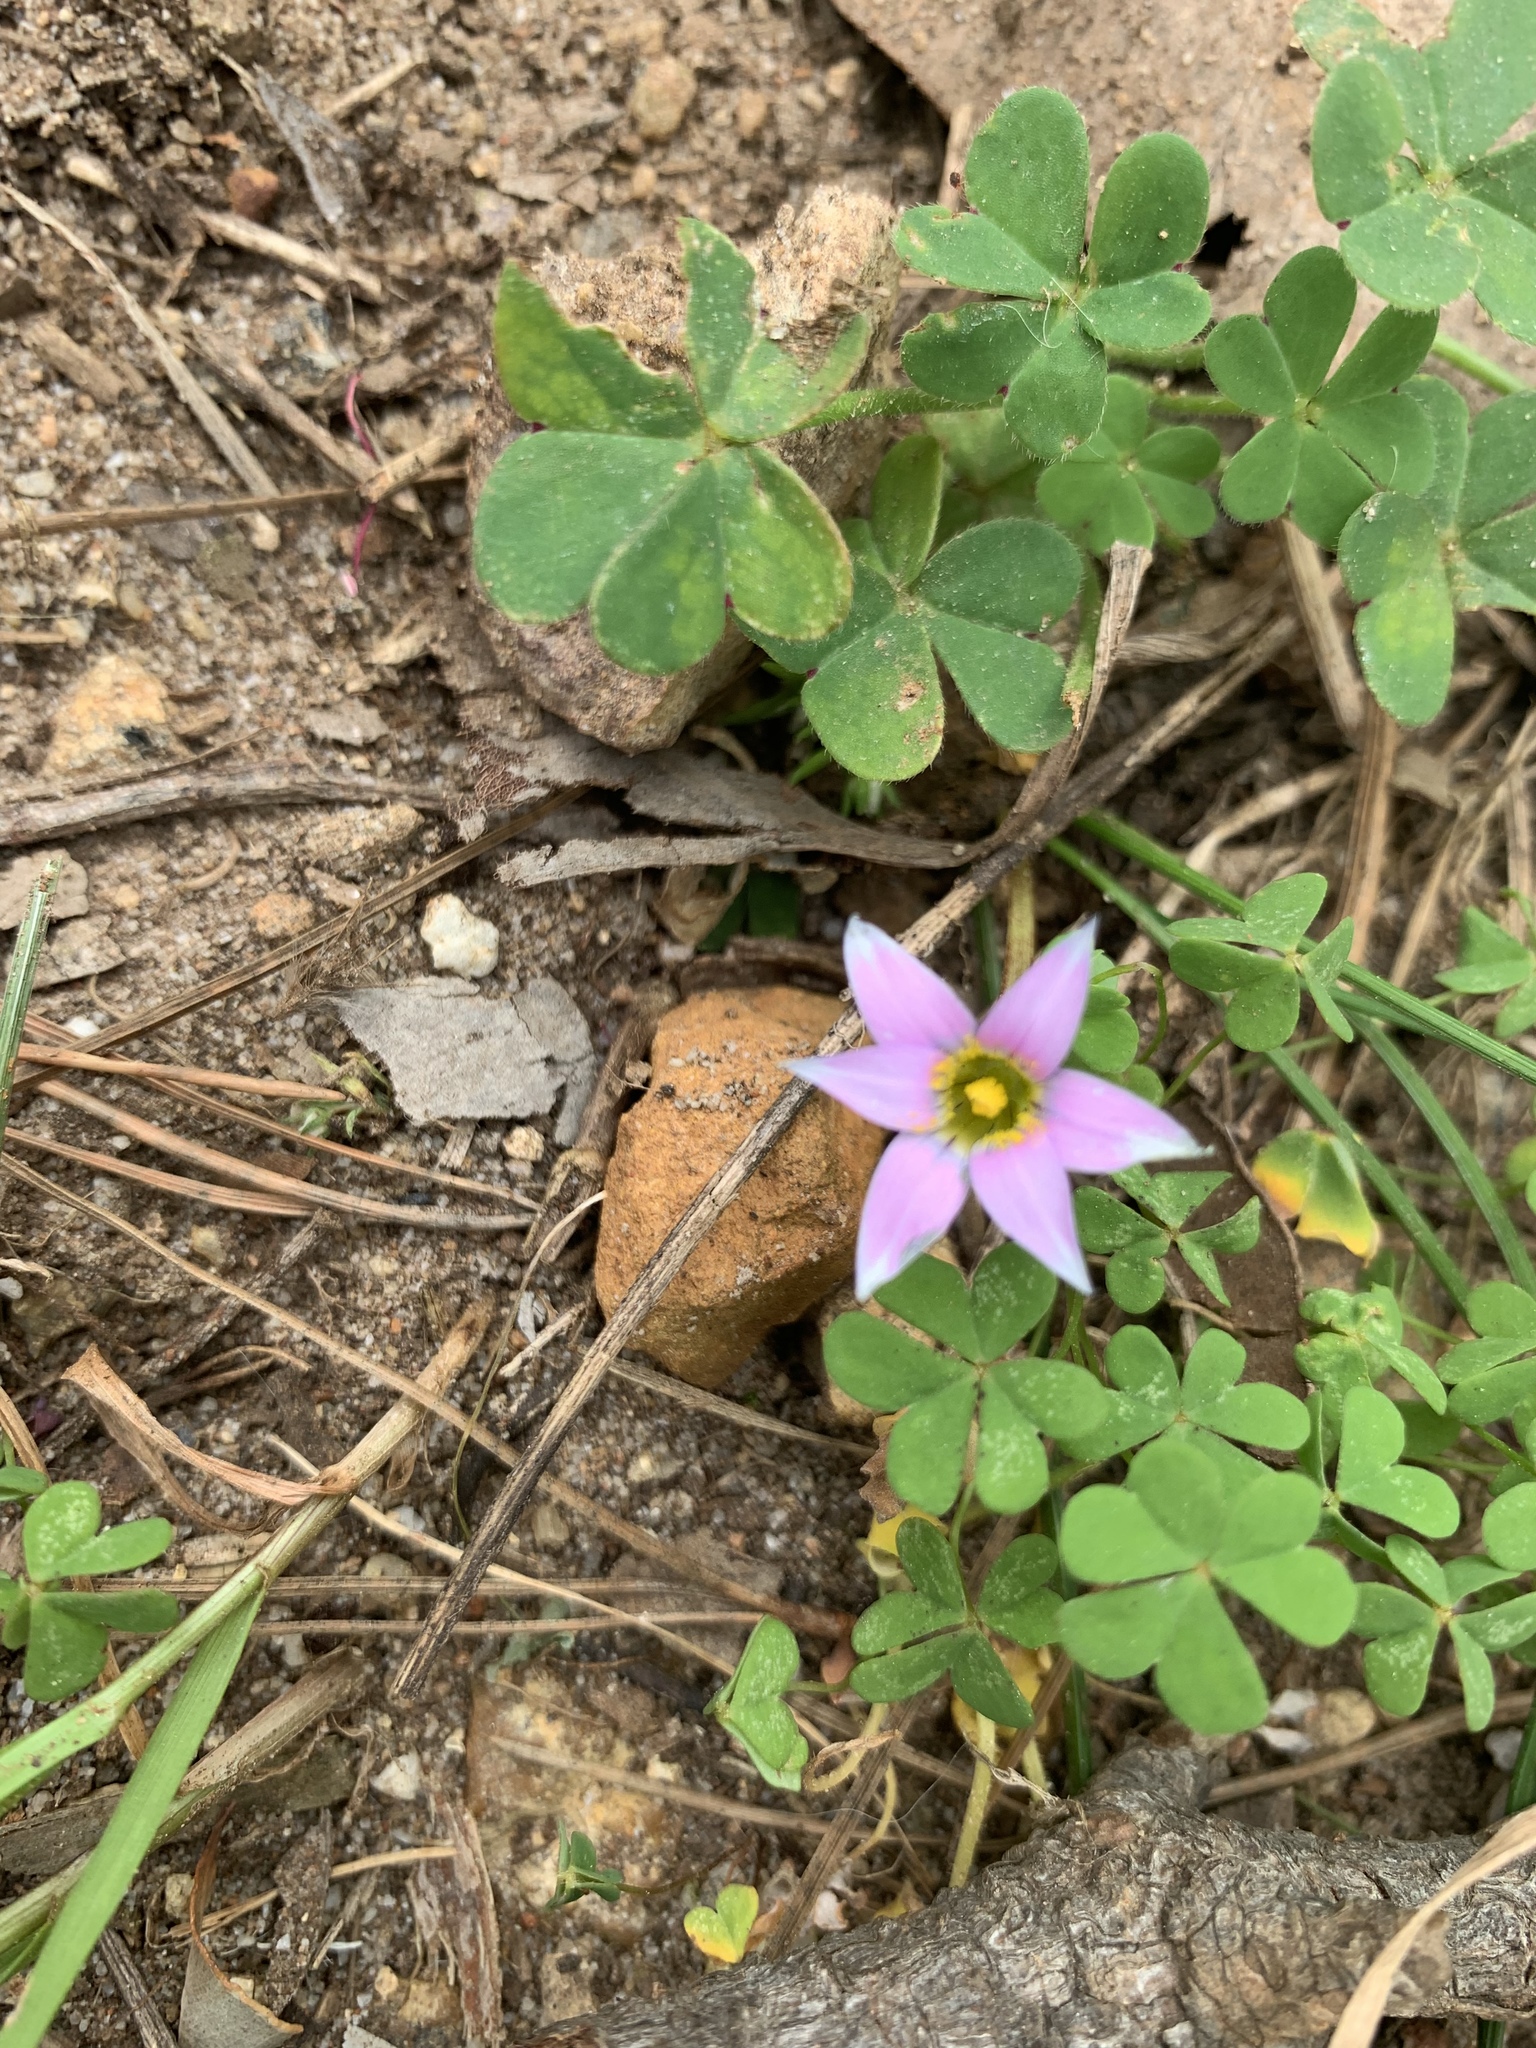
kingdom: Plantae
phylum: Tracheophyta
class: Liliopsida
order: Asparagales
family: Iridaceae
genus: Romulea
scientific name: Romulea rosea
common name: Oniongrass
